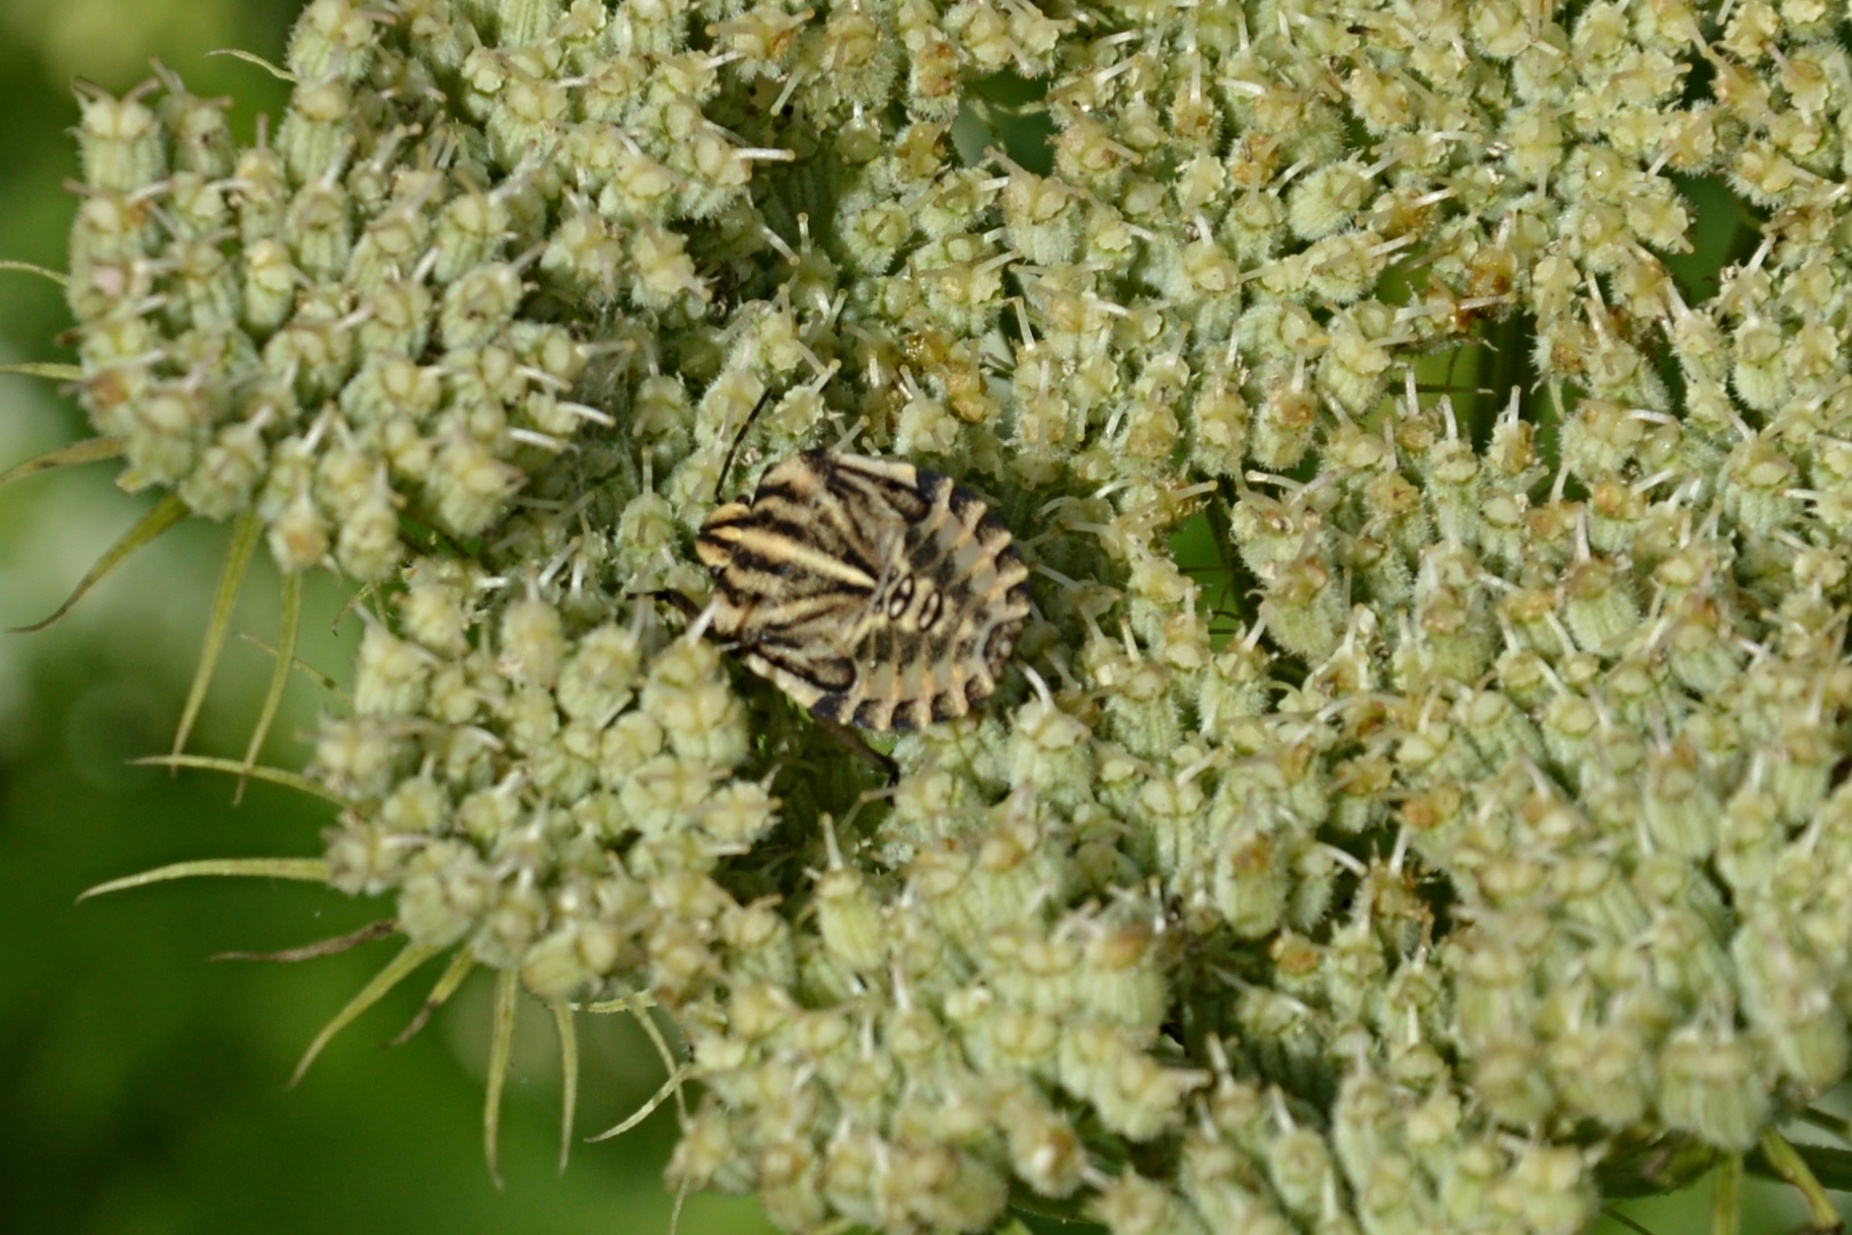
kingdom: Animalia
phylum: Arthropoda
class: Insecta
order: Hemiptera
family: Pentatomidae
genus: Graphosoma
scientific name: Graphosoma italicum
